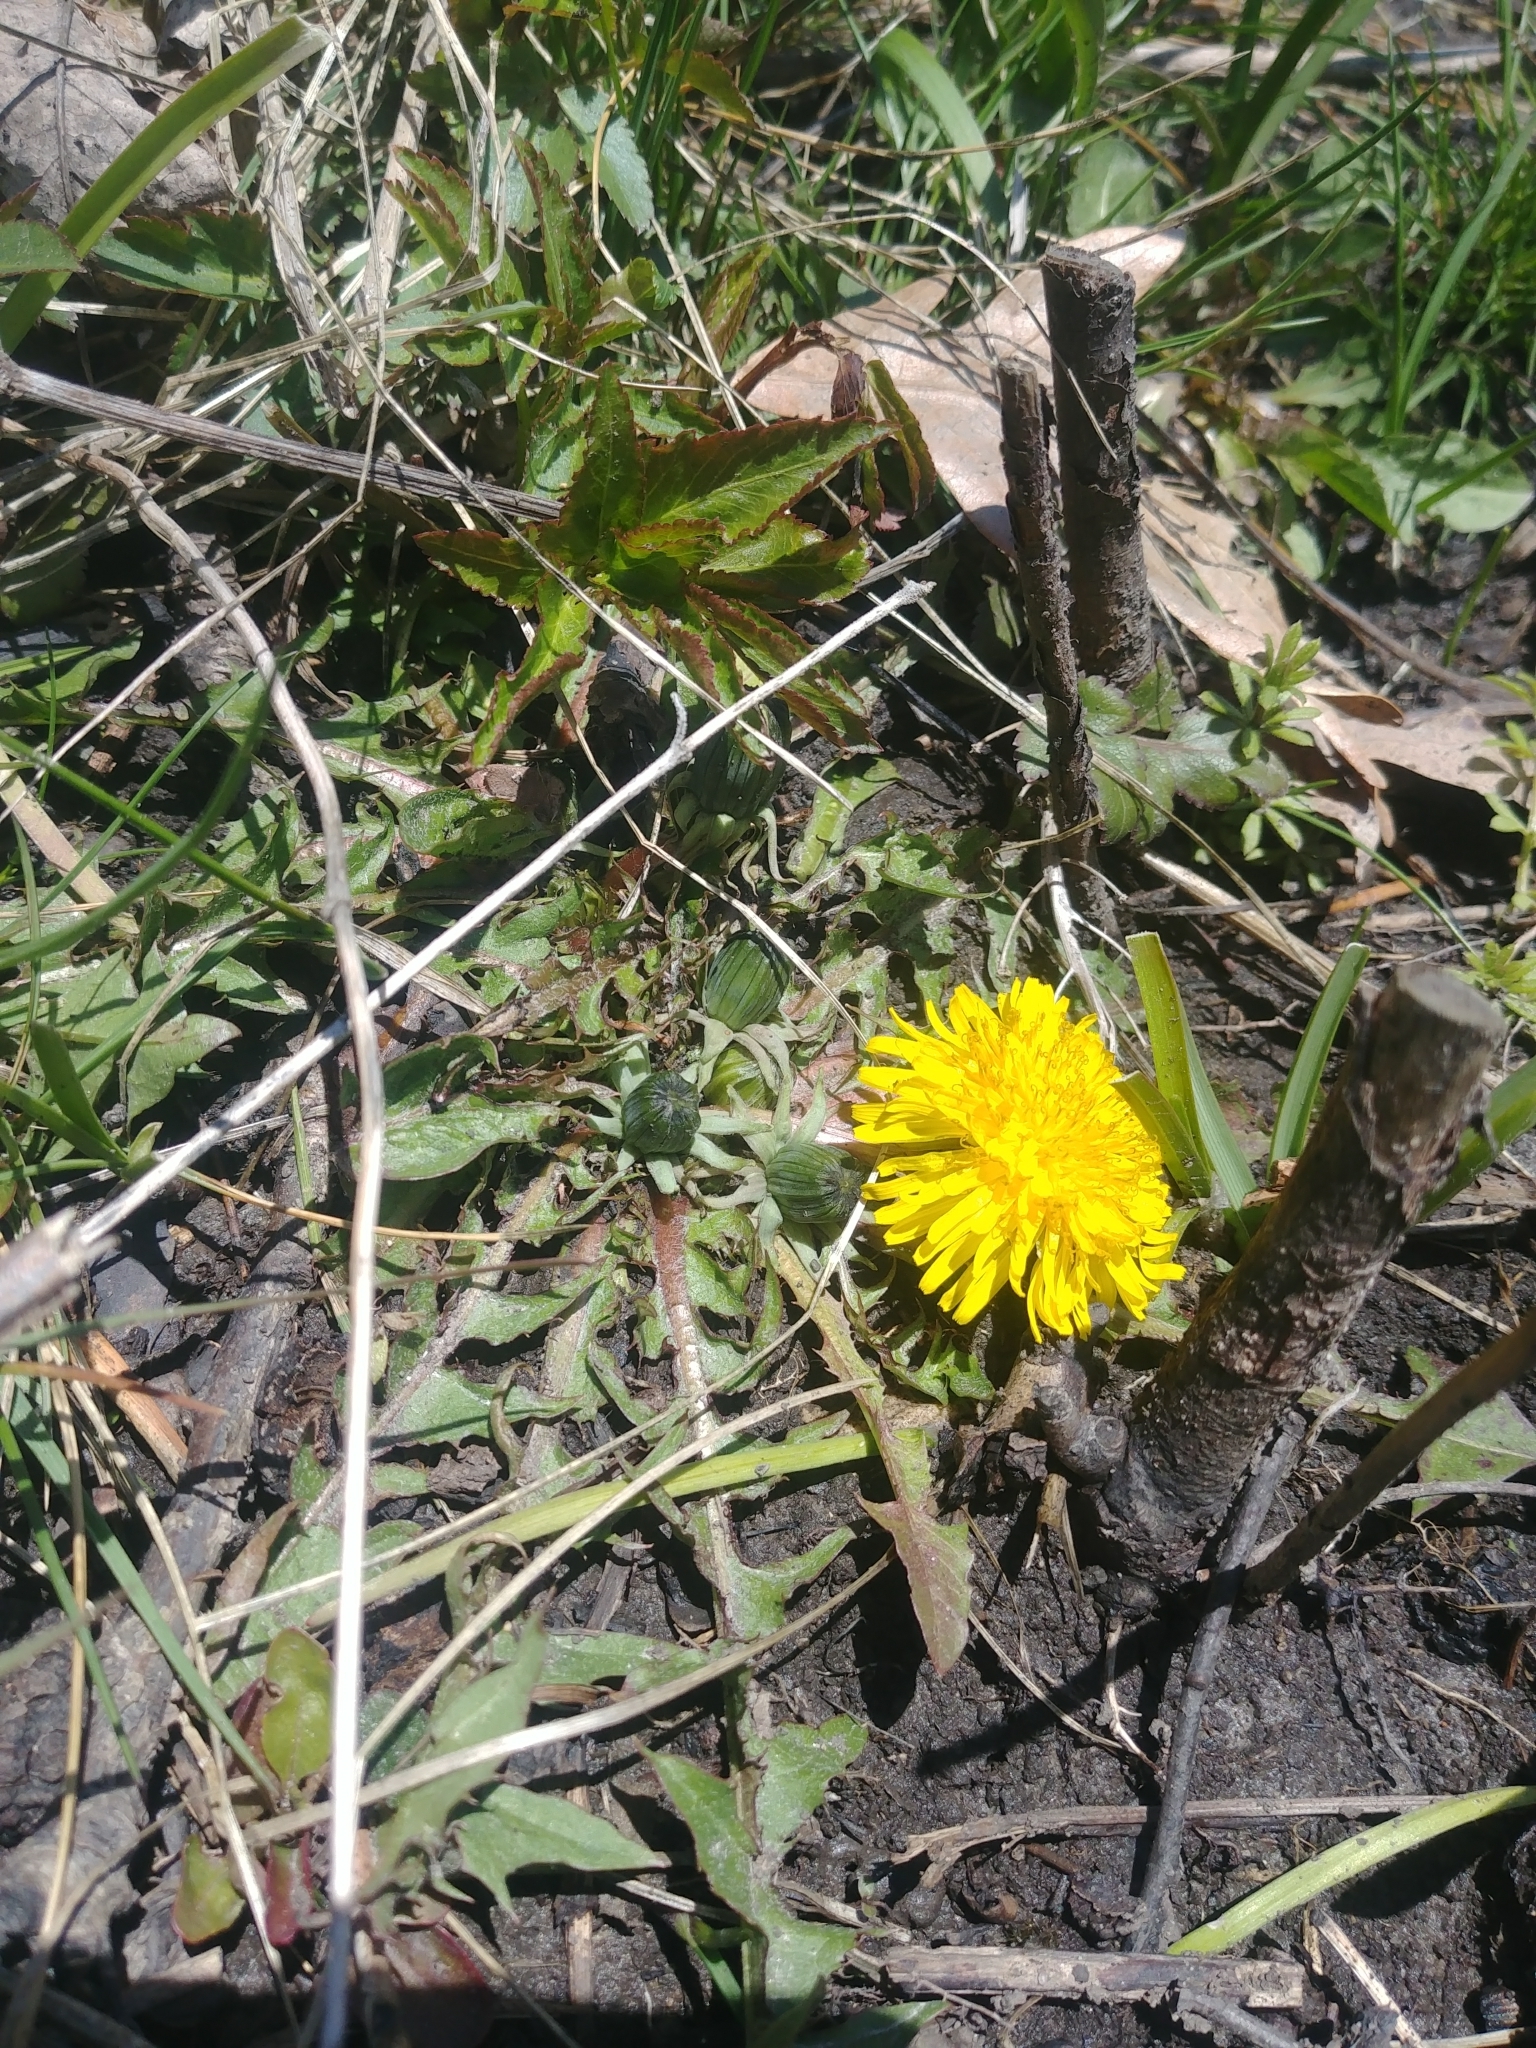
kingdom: Plantae
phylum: Tracheophyta
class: Magnoliopsida
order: Asterales
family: Asteraceae
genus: Taraxacum
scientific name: Taraxacum officinale
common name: Common dandelion
